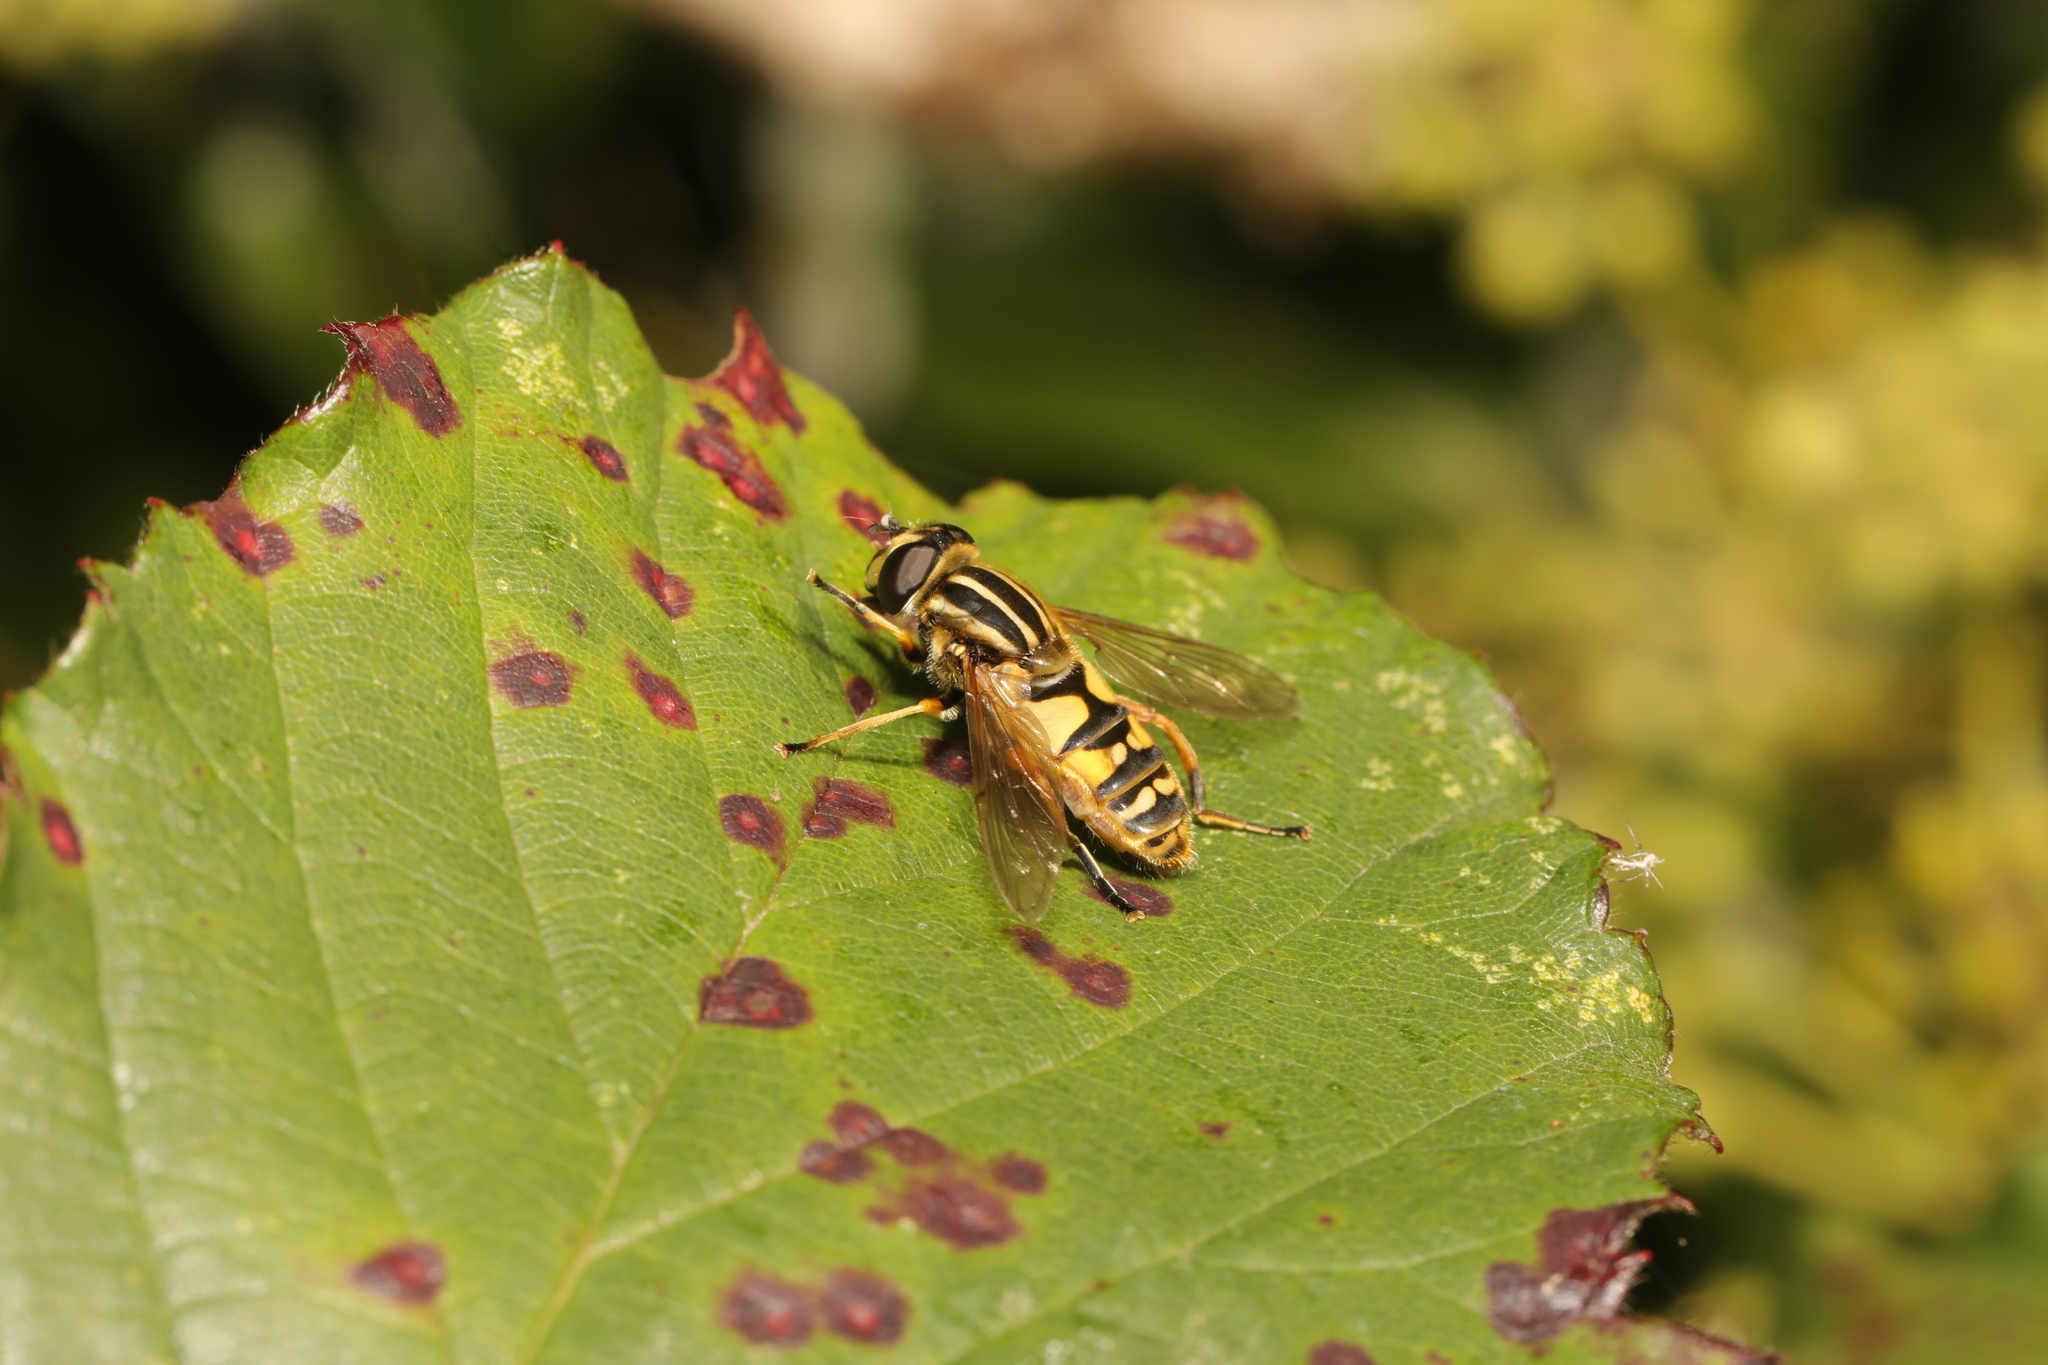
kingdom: Animalia
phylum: Arthropoda
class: Insecta
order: Diptera
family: Syrphidae
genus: Helophilus
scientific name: Helophilus pendulus
